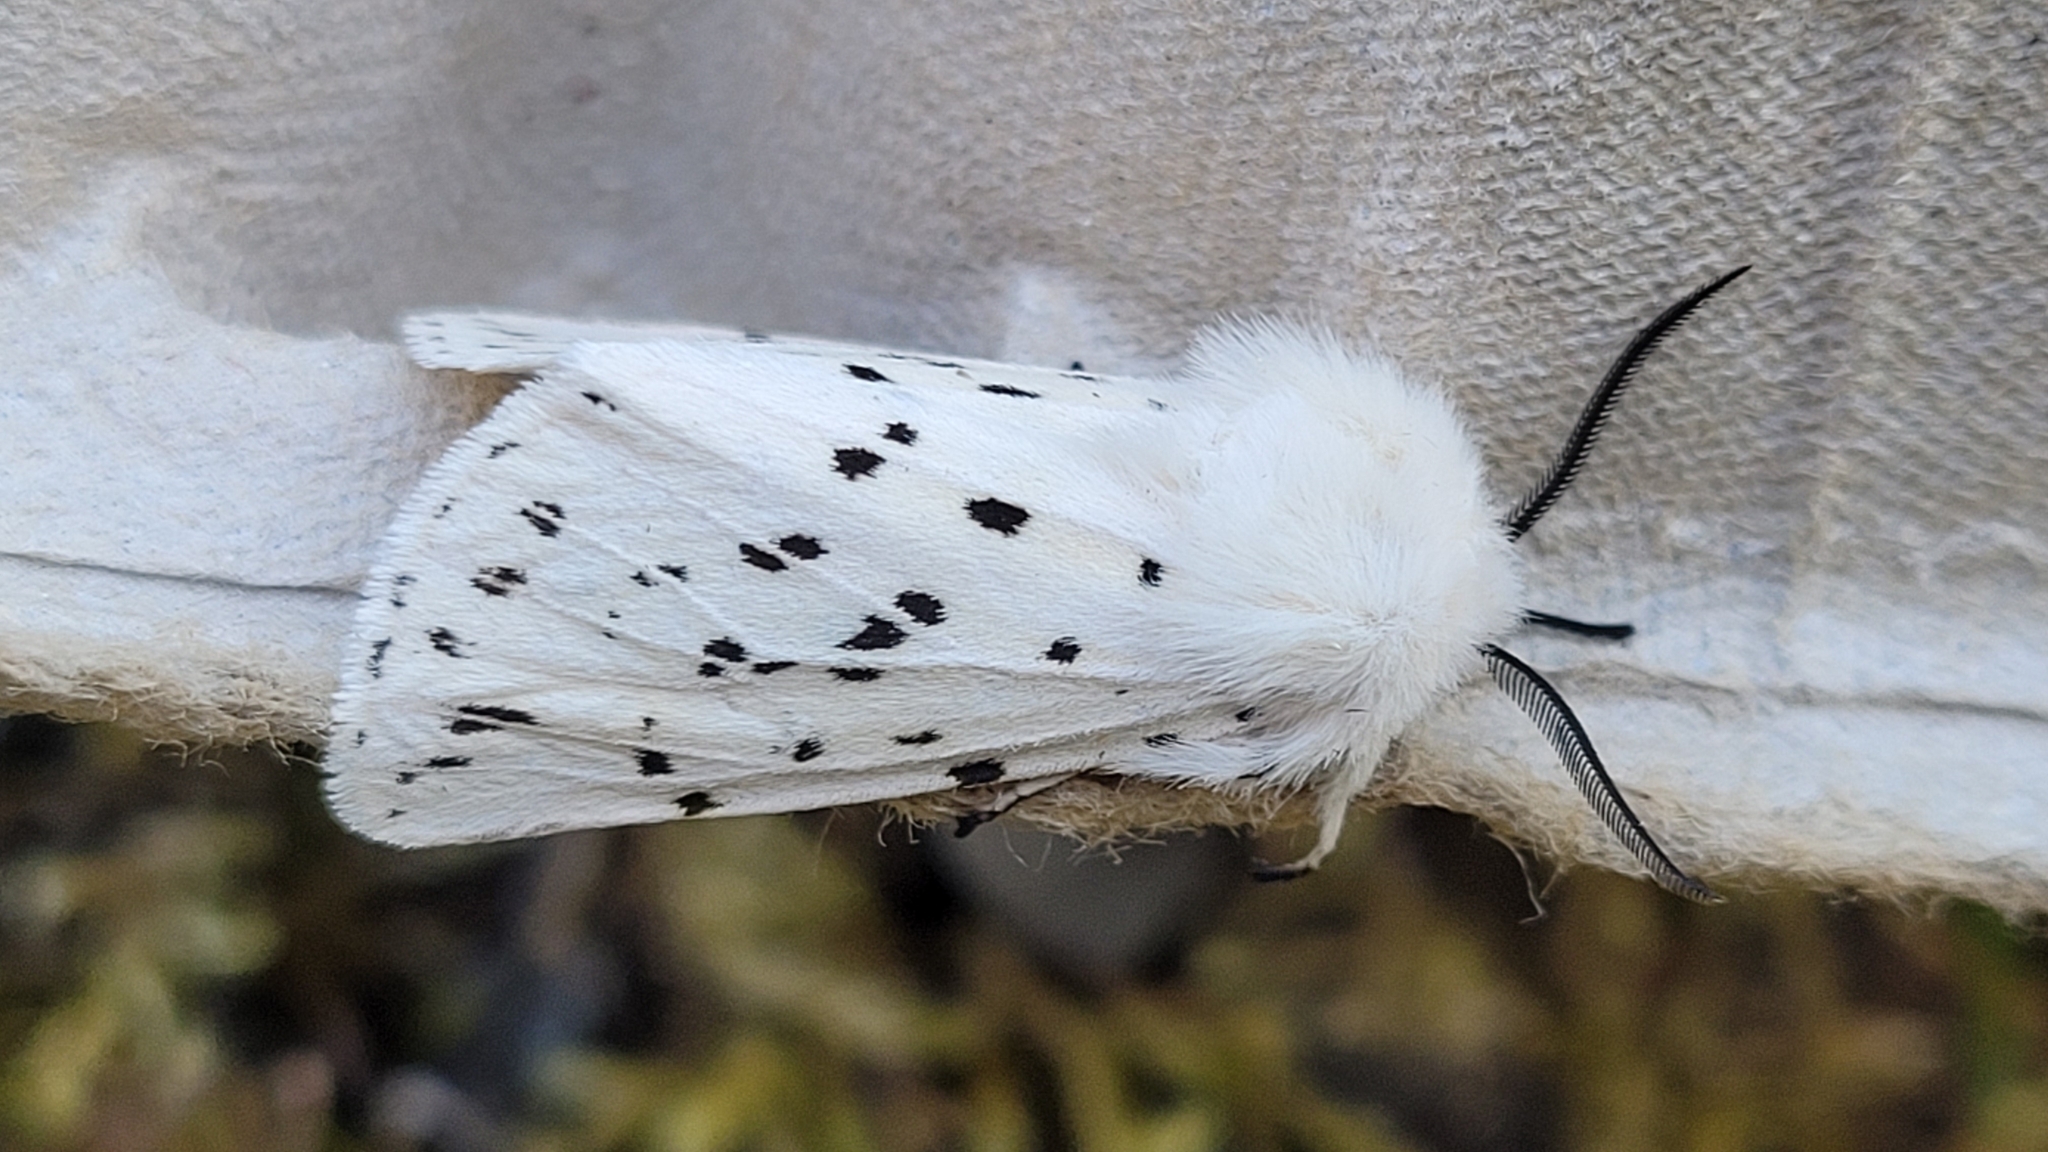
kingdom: Animalia
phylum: Arthropoda
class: Insecta
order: Lepidoptera
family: Erebidae
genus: Spilosoma
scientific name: Spilosoma lubricipeda
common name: White ermine
